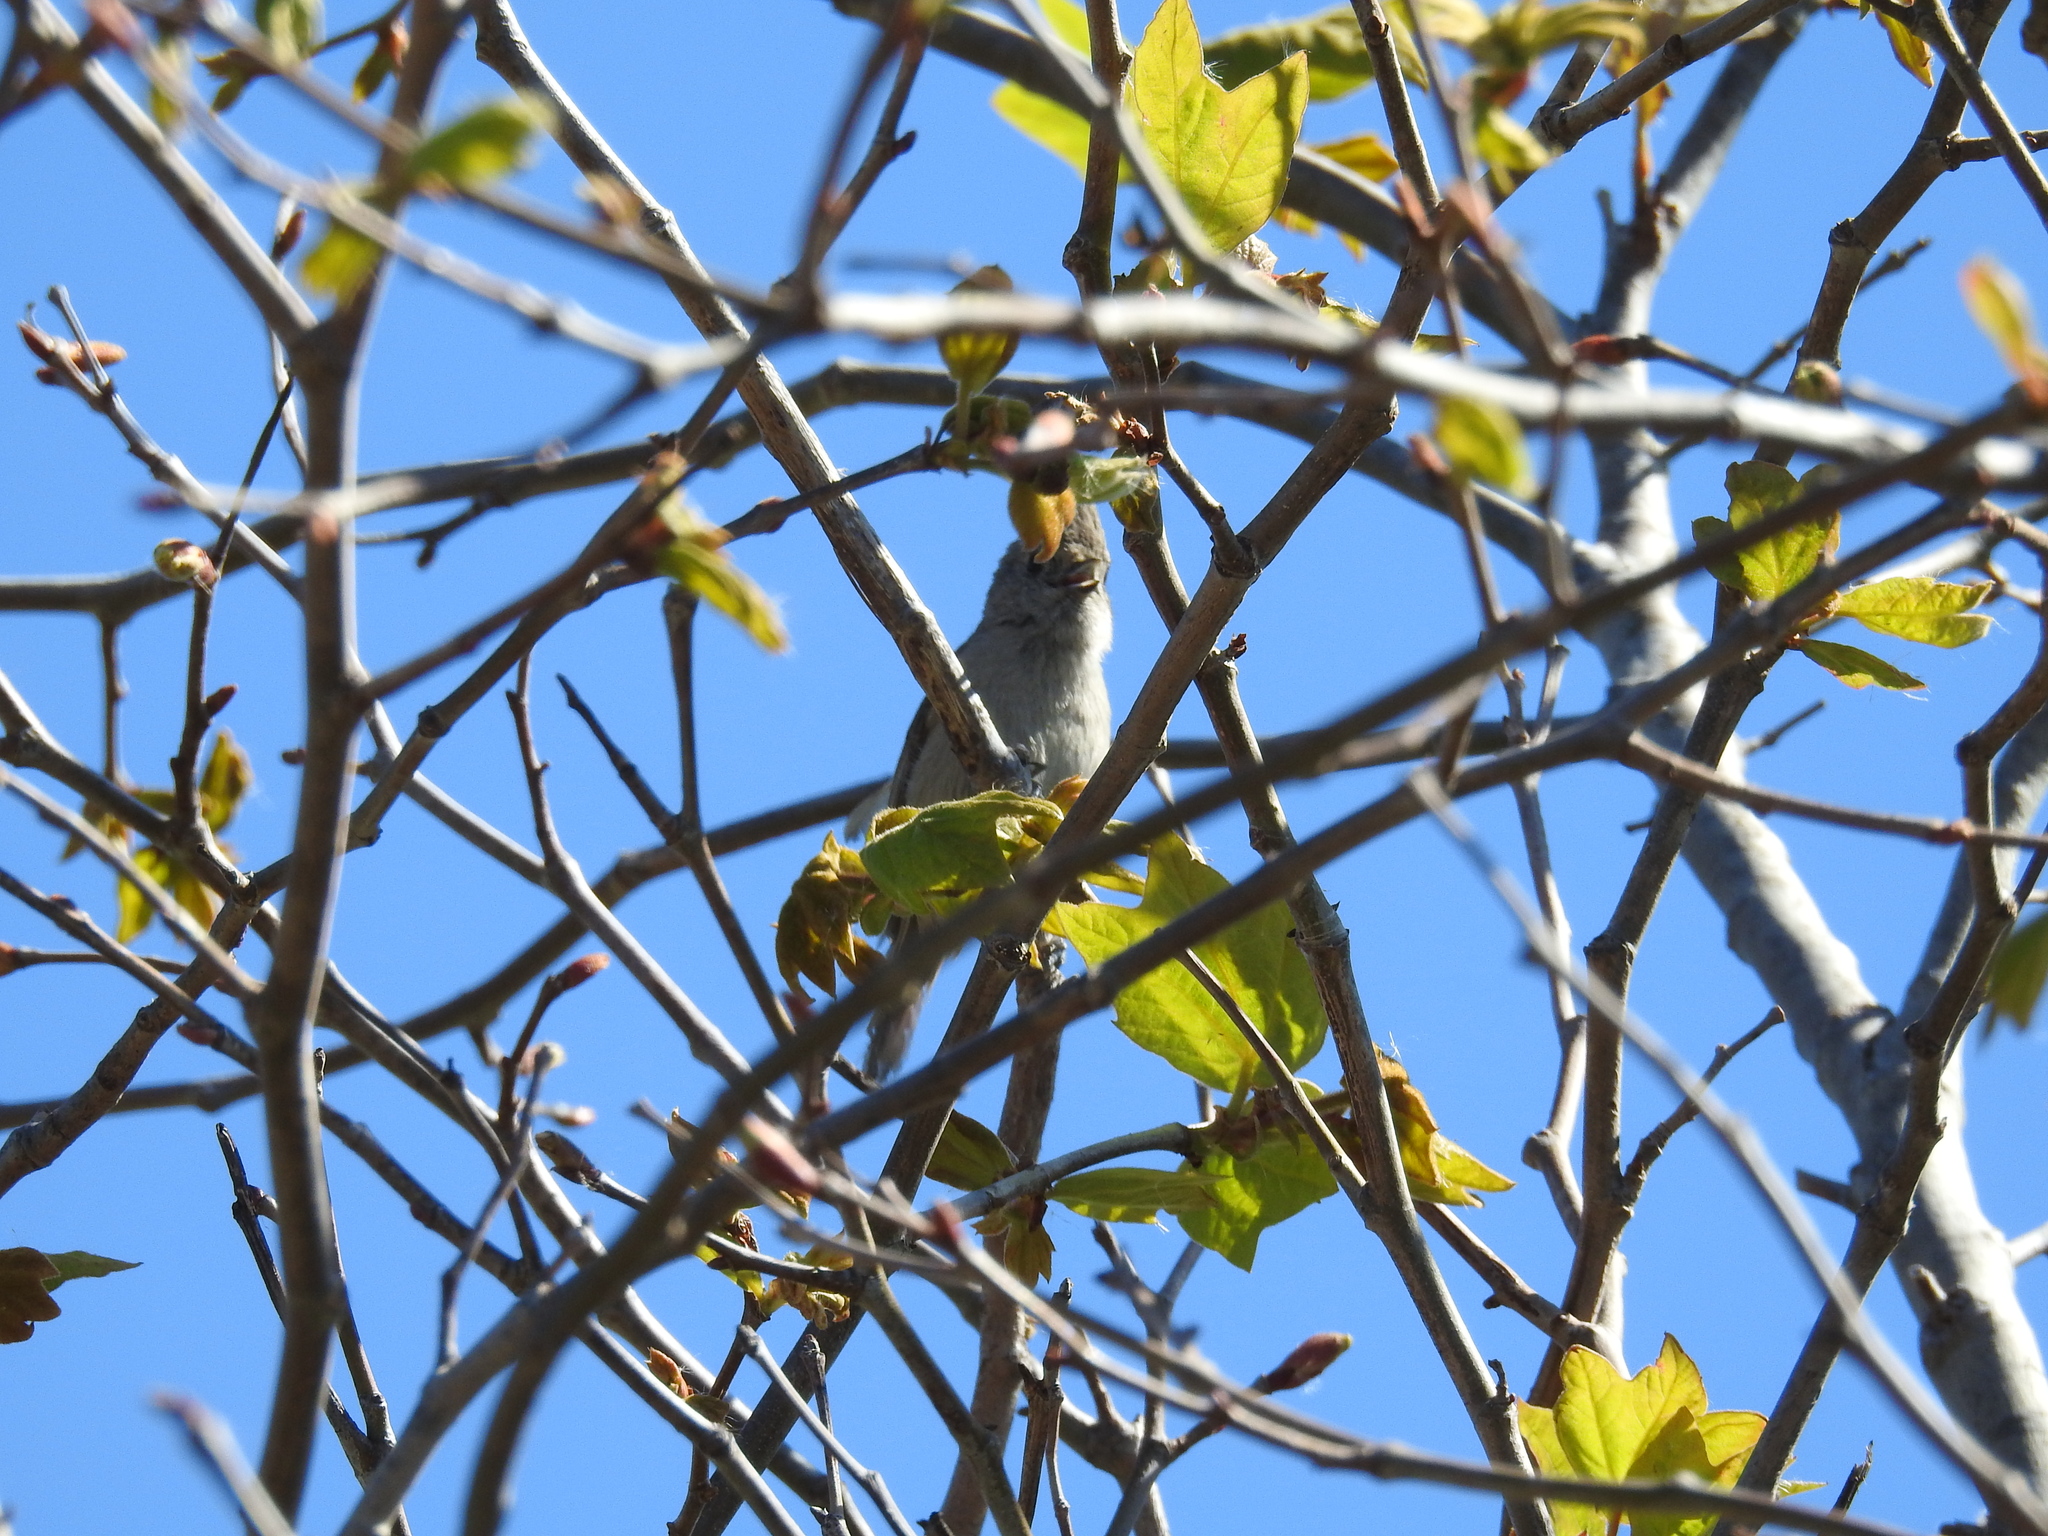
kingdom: Animalia
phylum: Chordata
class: Aves
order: Passeriformes
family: Paridae
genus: Baeolophus
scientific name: Baeolophus inornatus
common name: Oak titmouse
